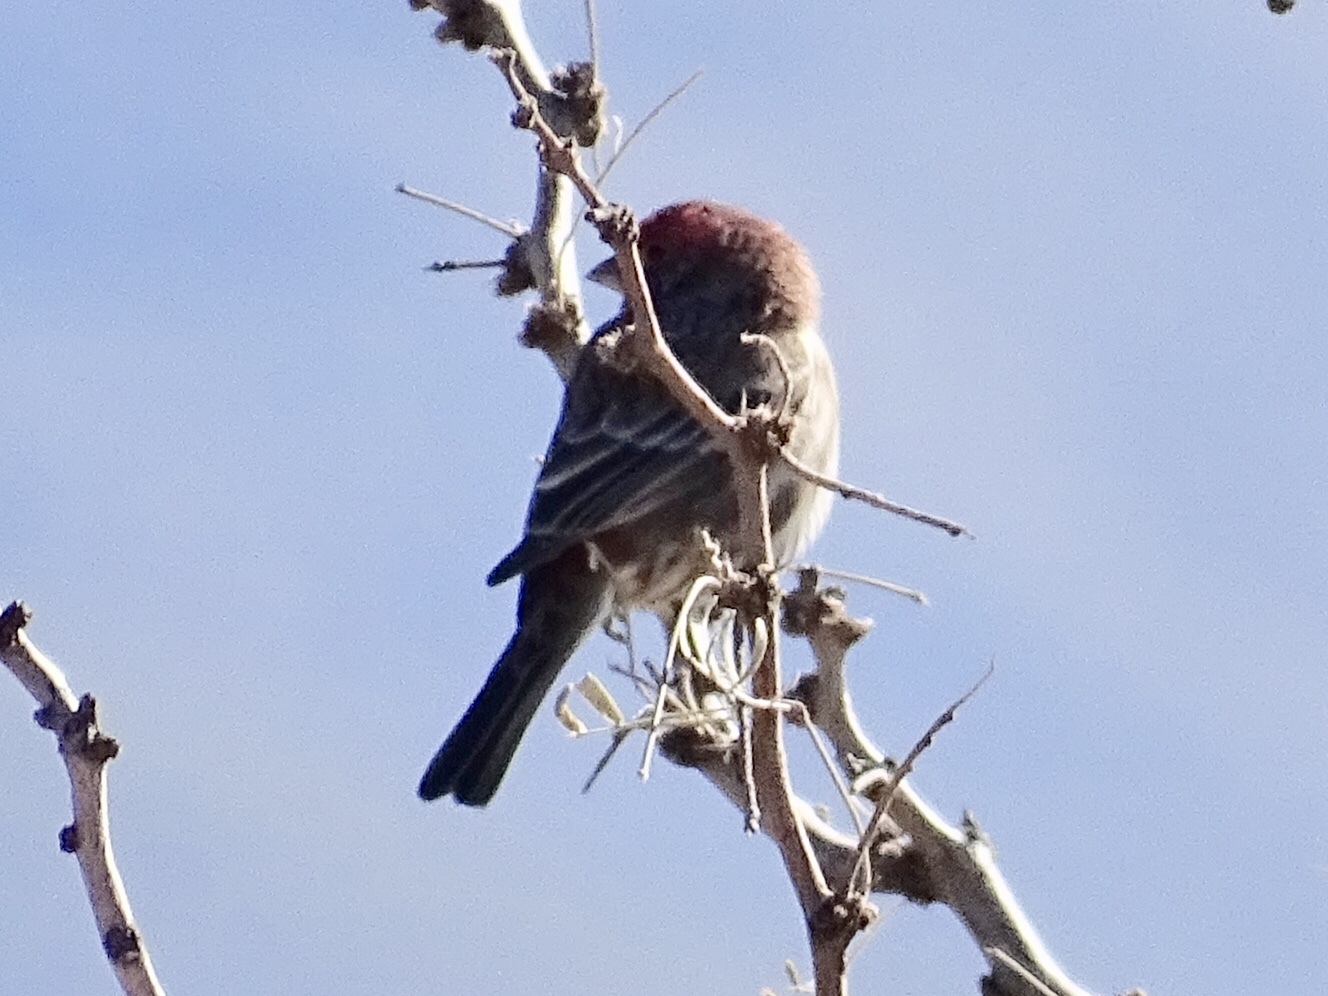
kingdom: Animalia
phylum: Chordata
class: Aves
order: Passeriformes
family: Fringillidae
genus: Haemorhous
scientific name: Haemorhous mexicanus
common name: House finch
